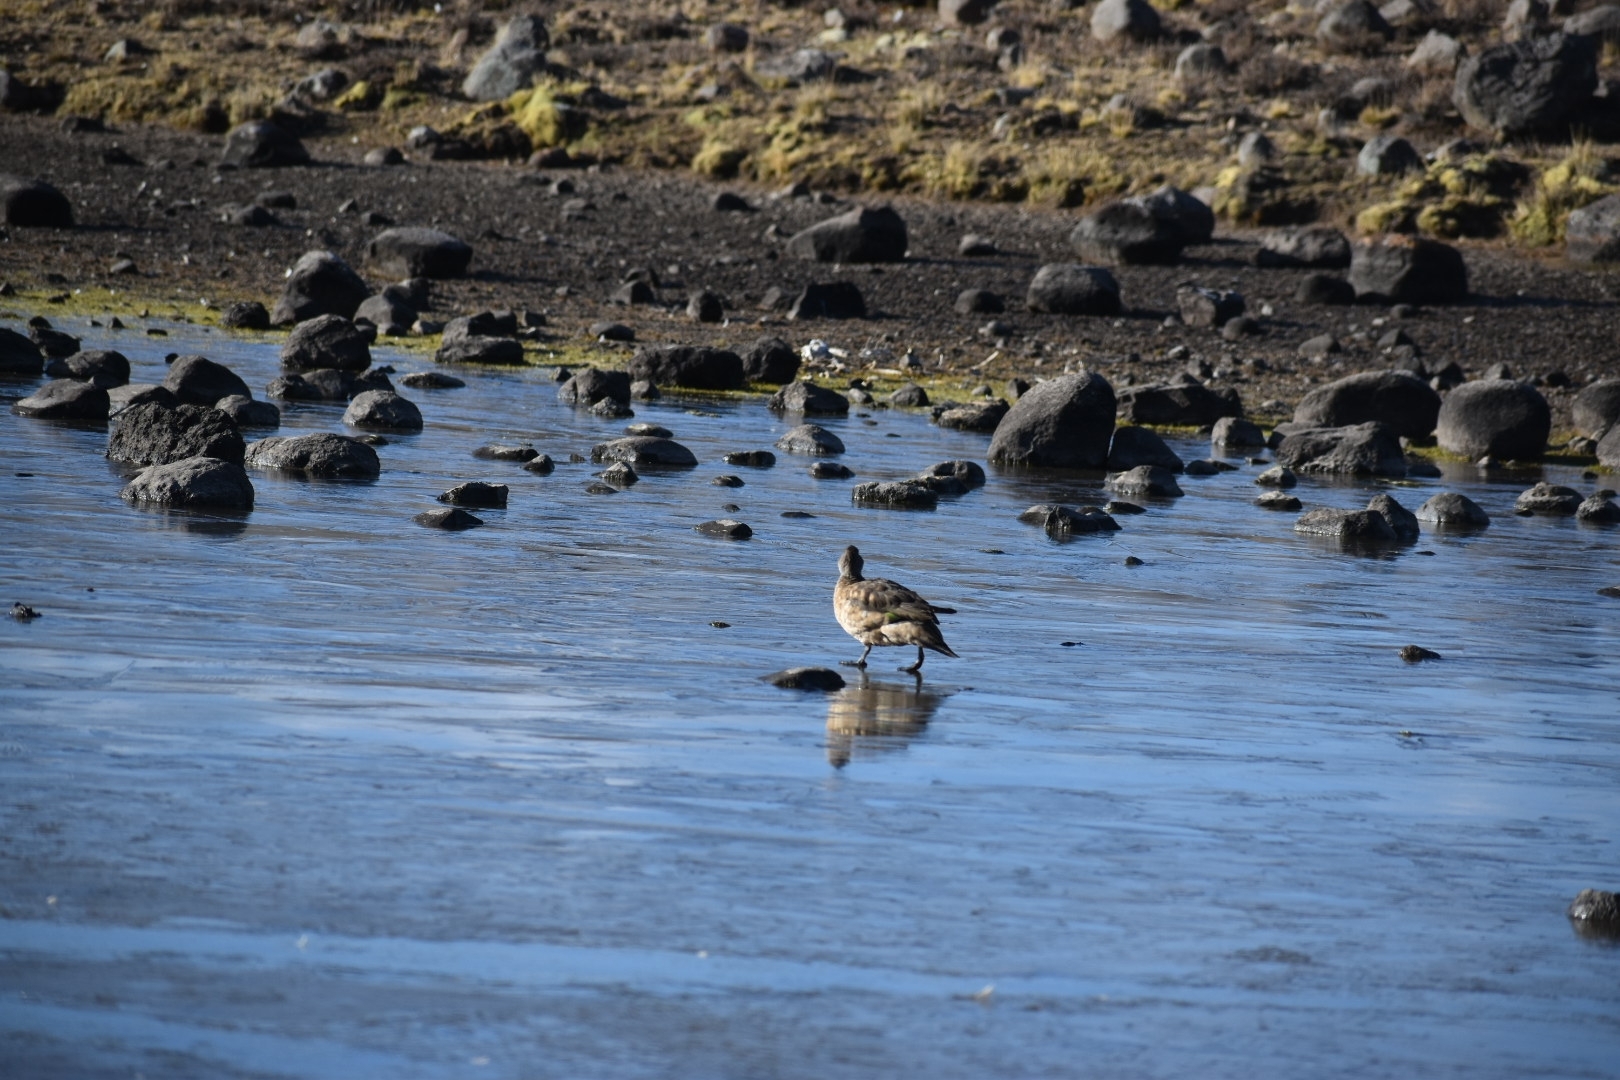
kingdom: Animalia
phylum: Chordata
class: Aves
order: Anseriformes
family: Anatidae
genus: Lophonetta
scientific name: Lophonetta specularioides
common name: Crested duck
